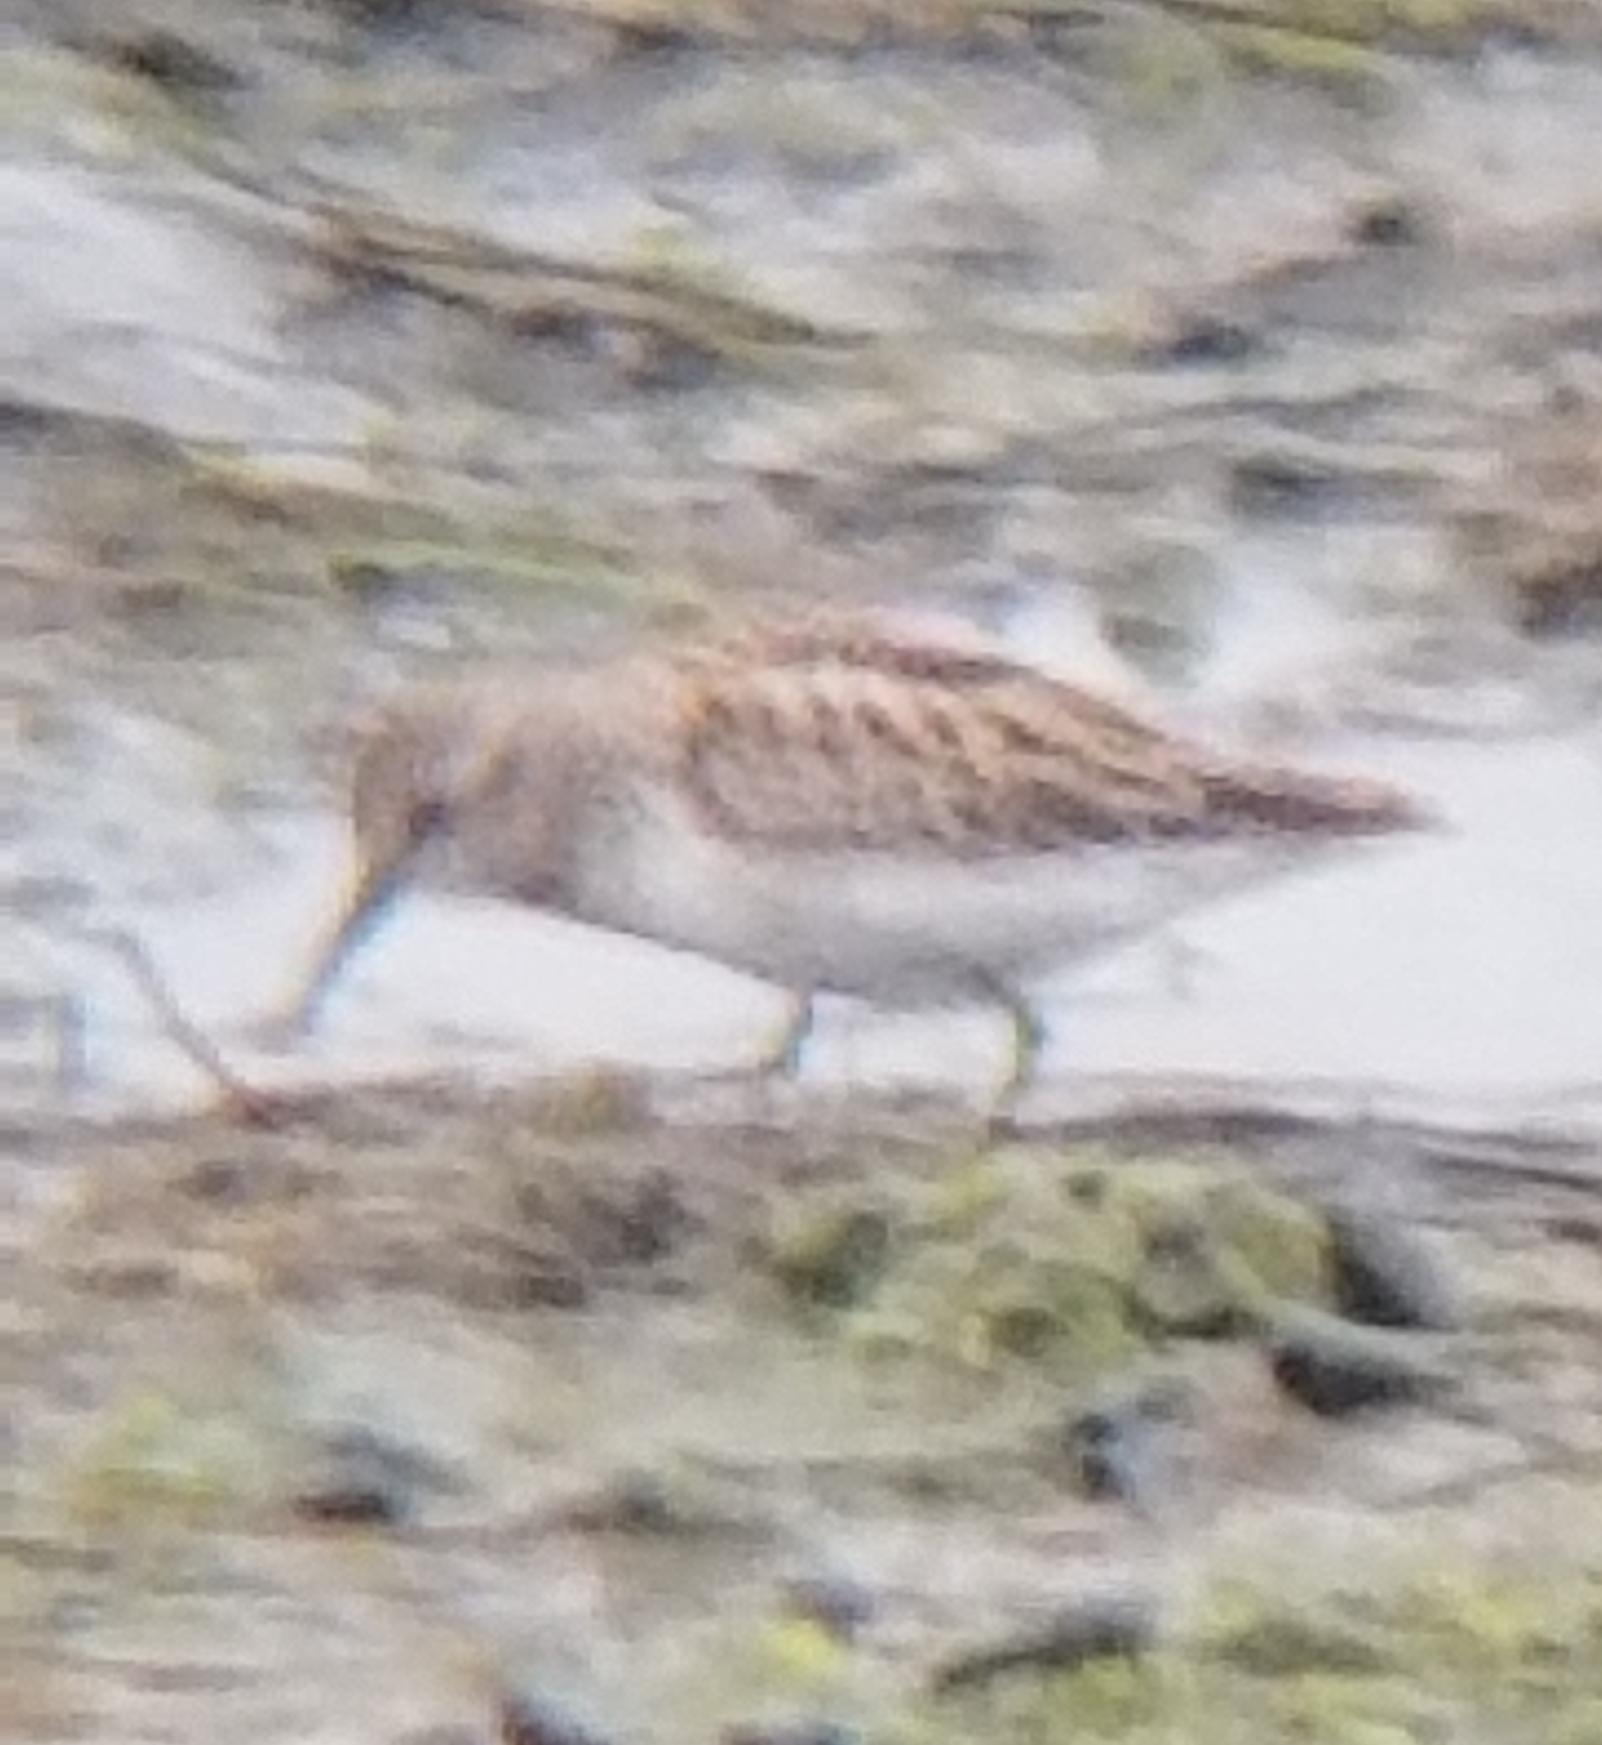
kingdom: Animalia
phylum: Chordata
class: Aves
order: Charadriiformes
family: Scolopacidae
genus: Calidris
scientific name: Calidris minutilla
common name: Least sandpiper
